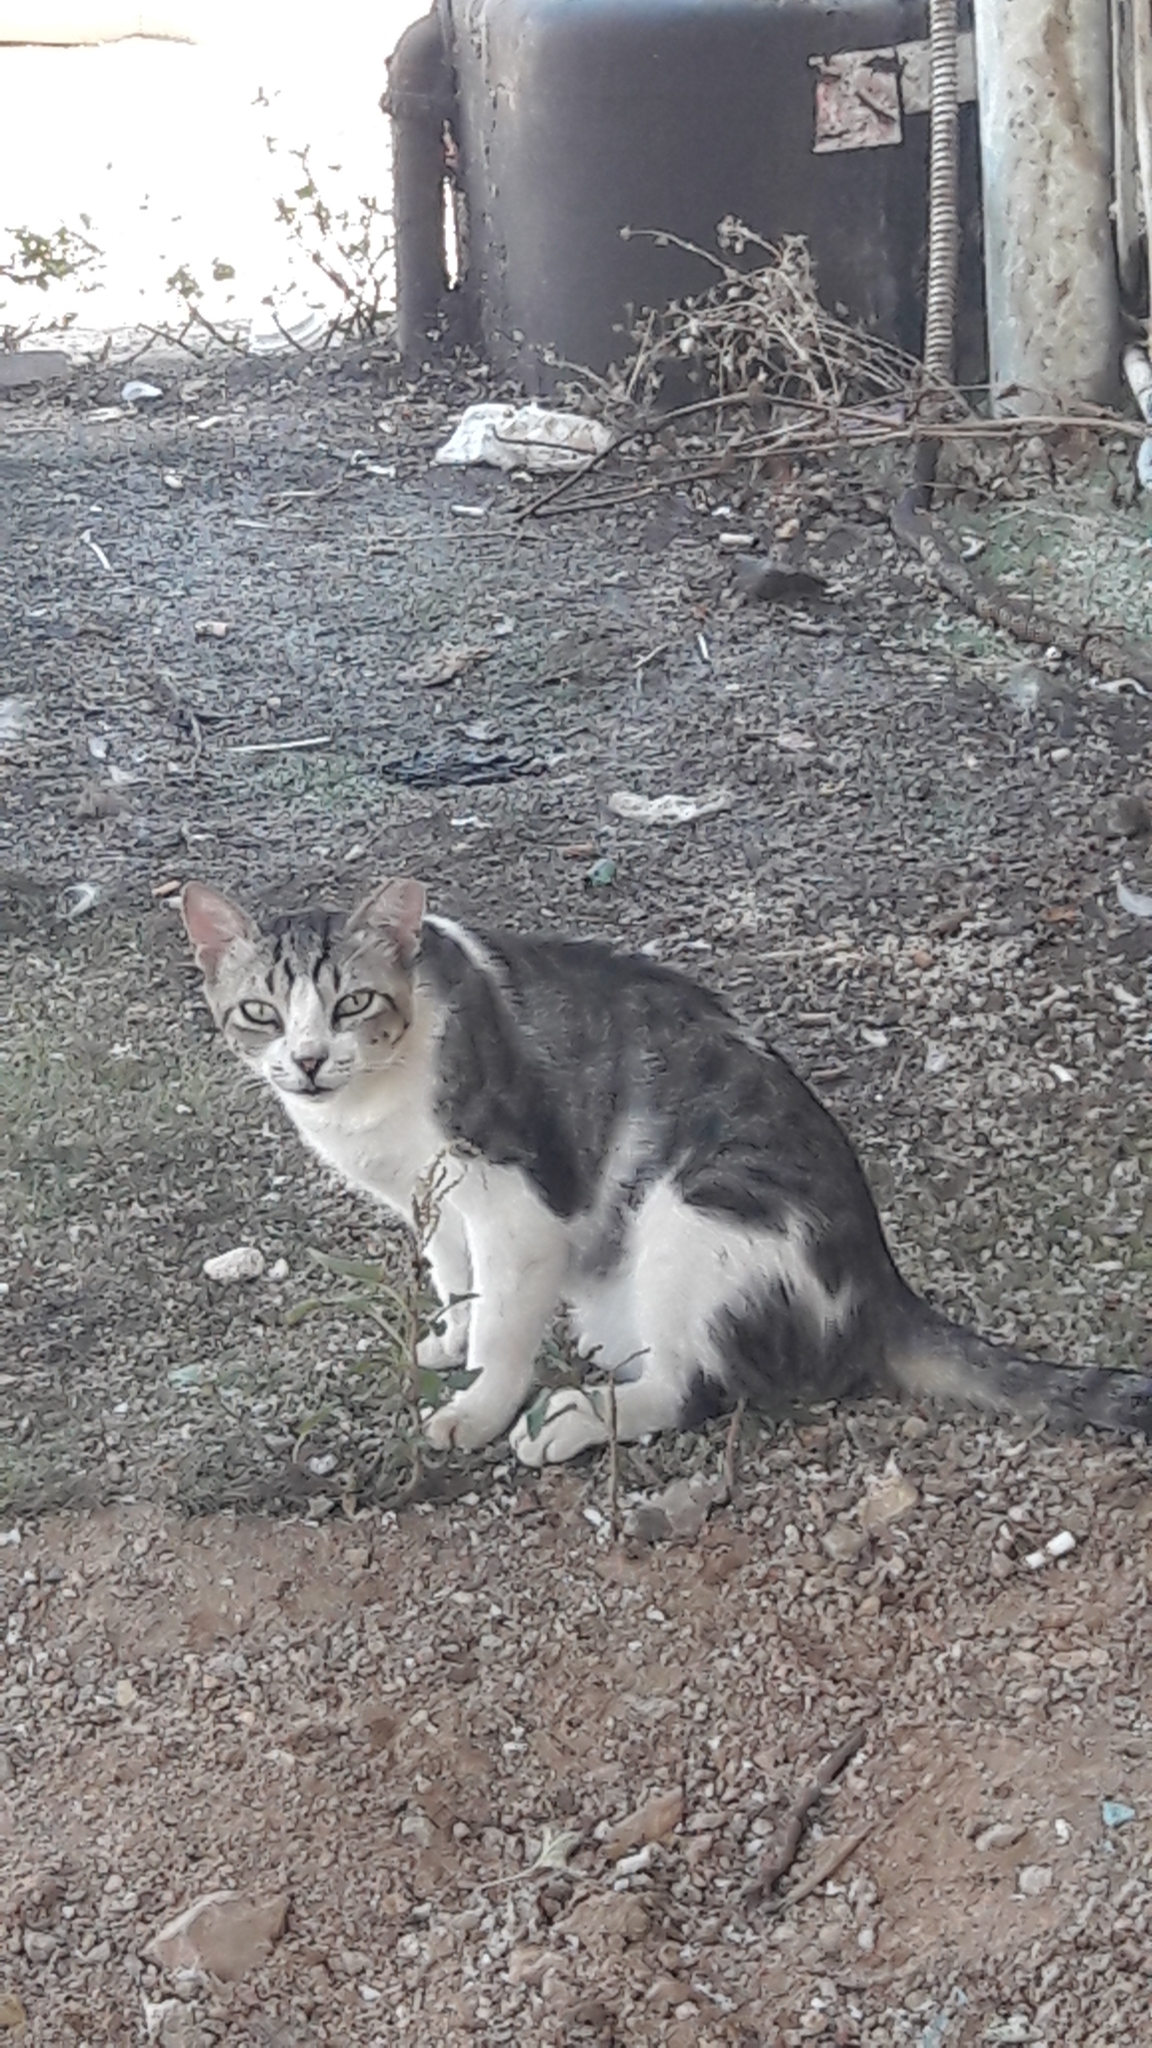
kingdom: Animalia
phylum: Chordata
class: Mammalia
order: Carnivora
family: Felidae
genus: Felis
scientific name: Felis catus
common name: Domestic cat
